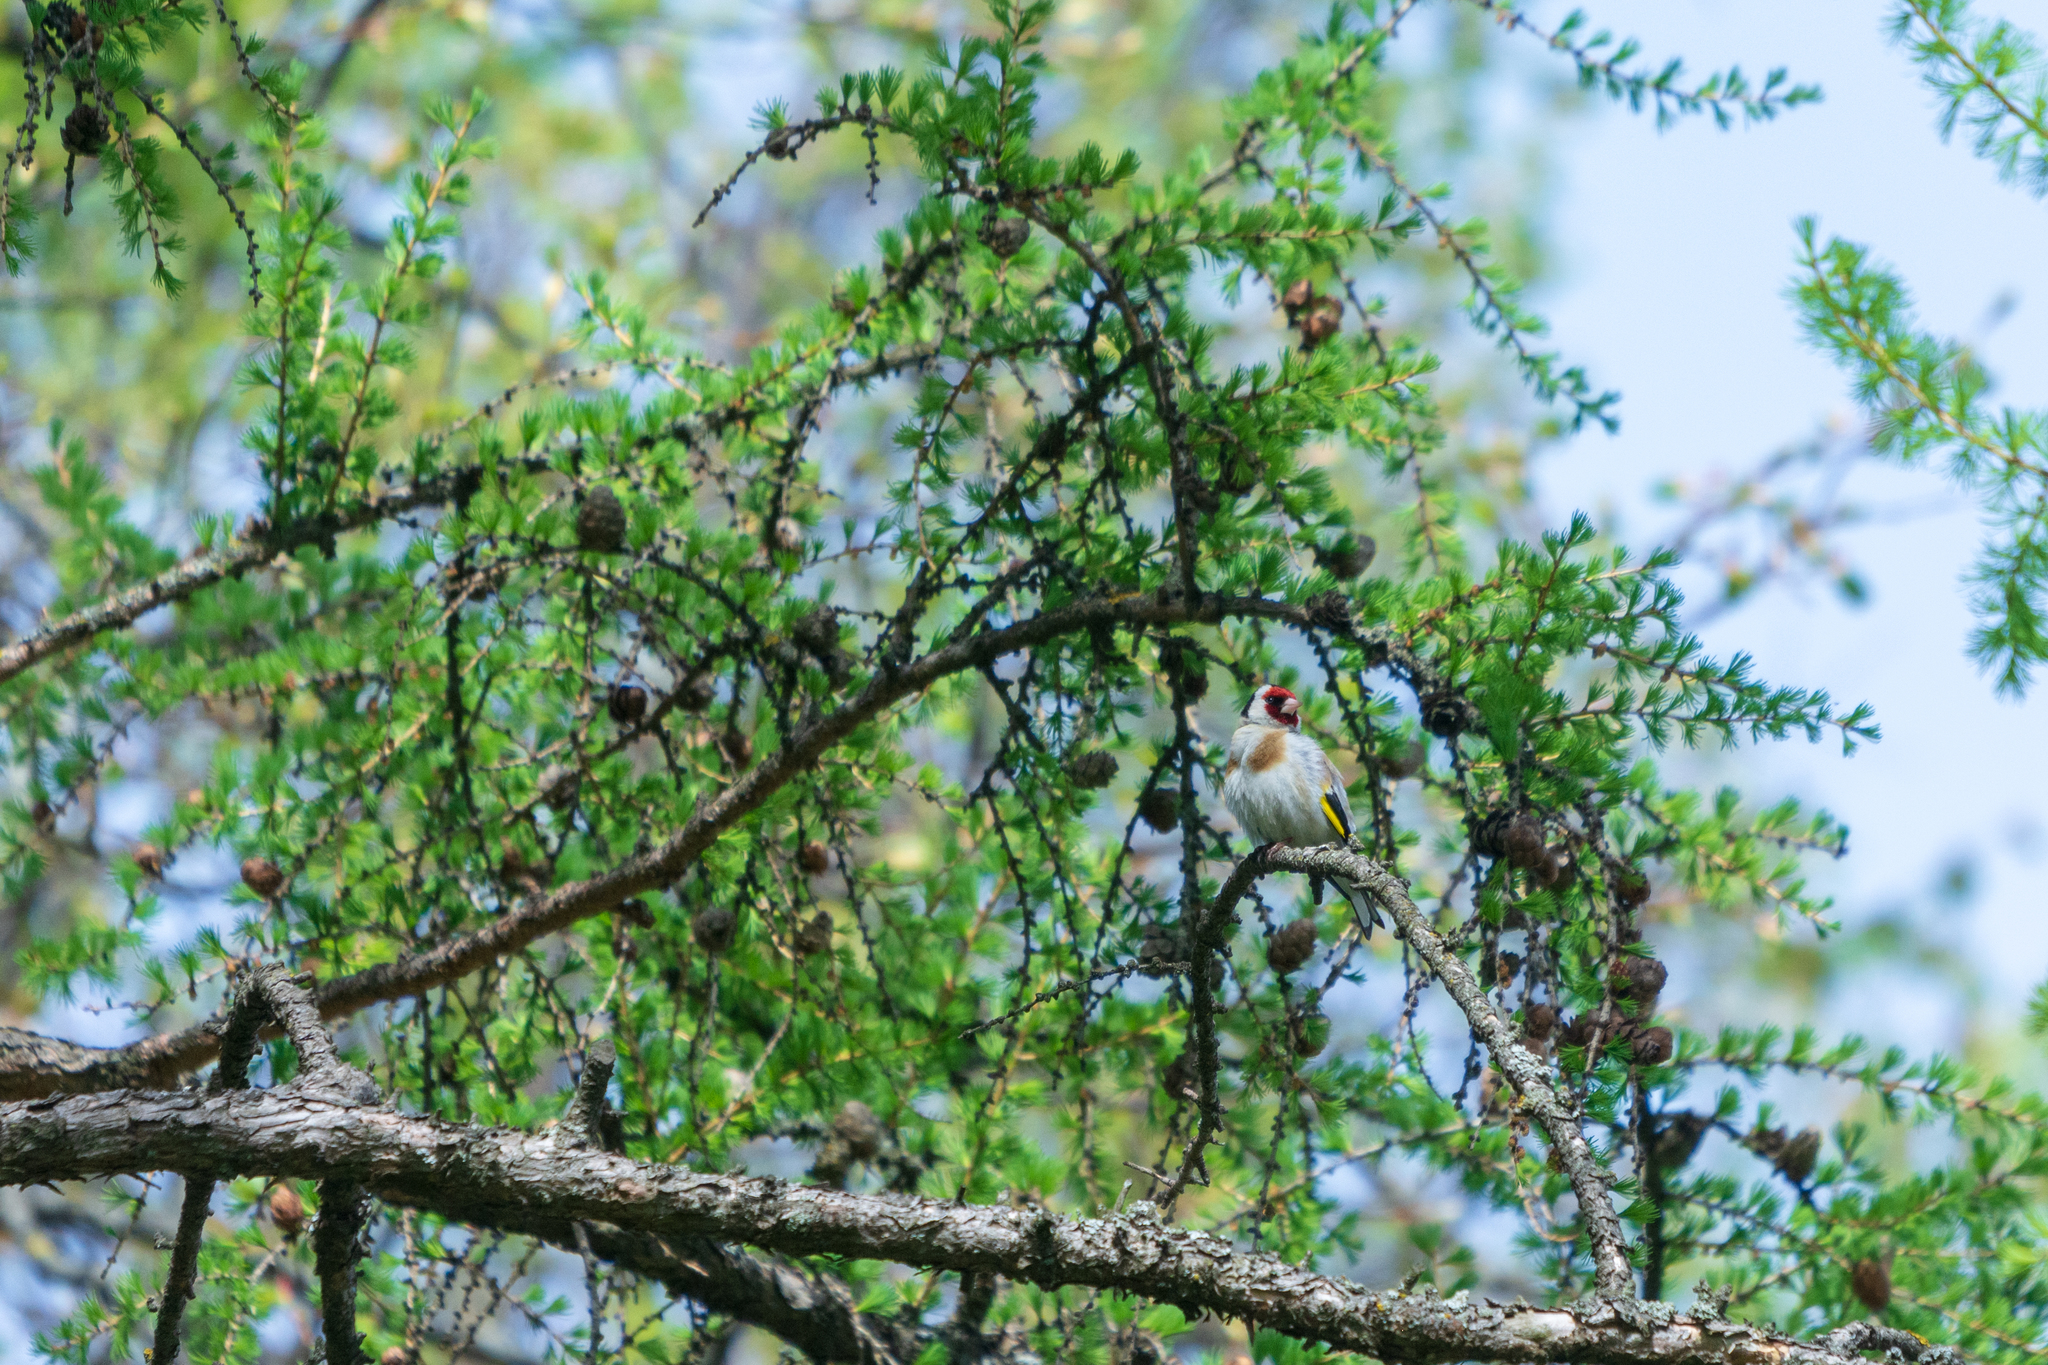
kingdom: Animalia
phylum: Chordata
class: Aves
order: Passeriformes
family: Fringillidae
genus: Carduelis
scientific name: Carduelis carduelis
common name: European goldfinch
